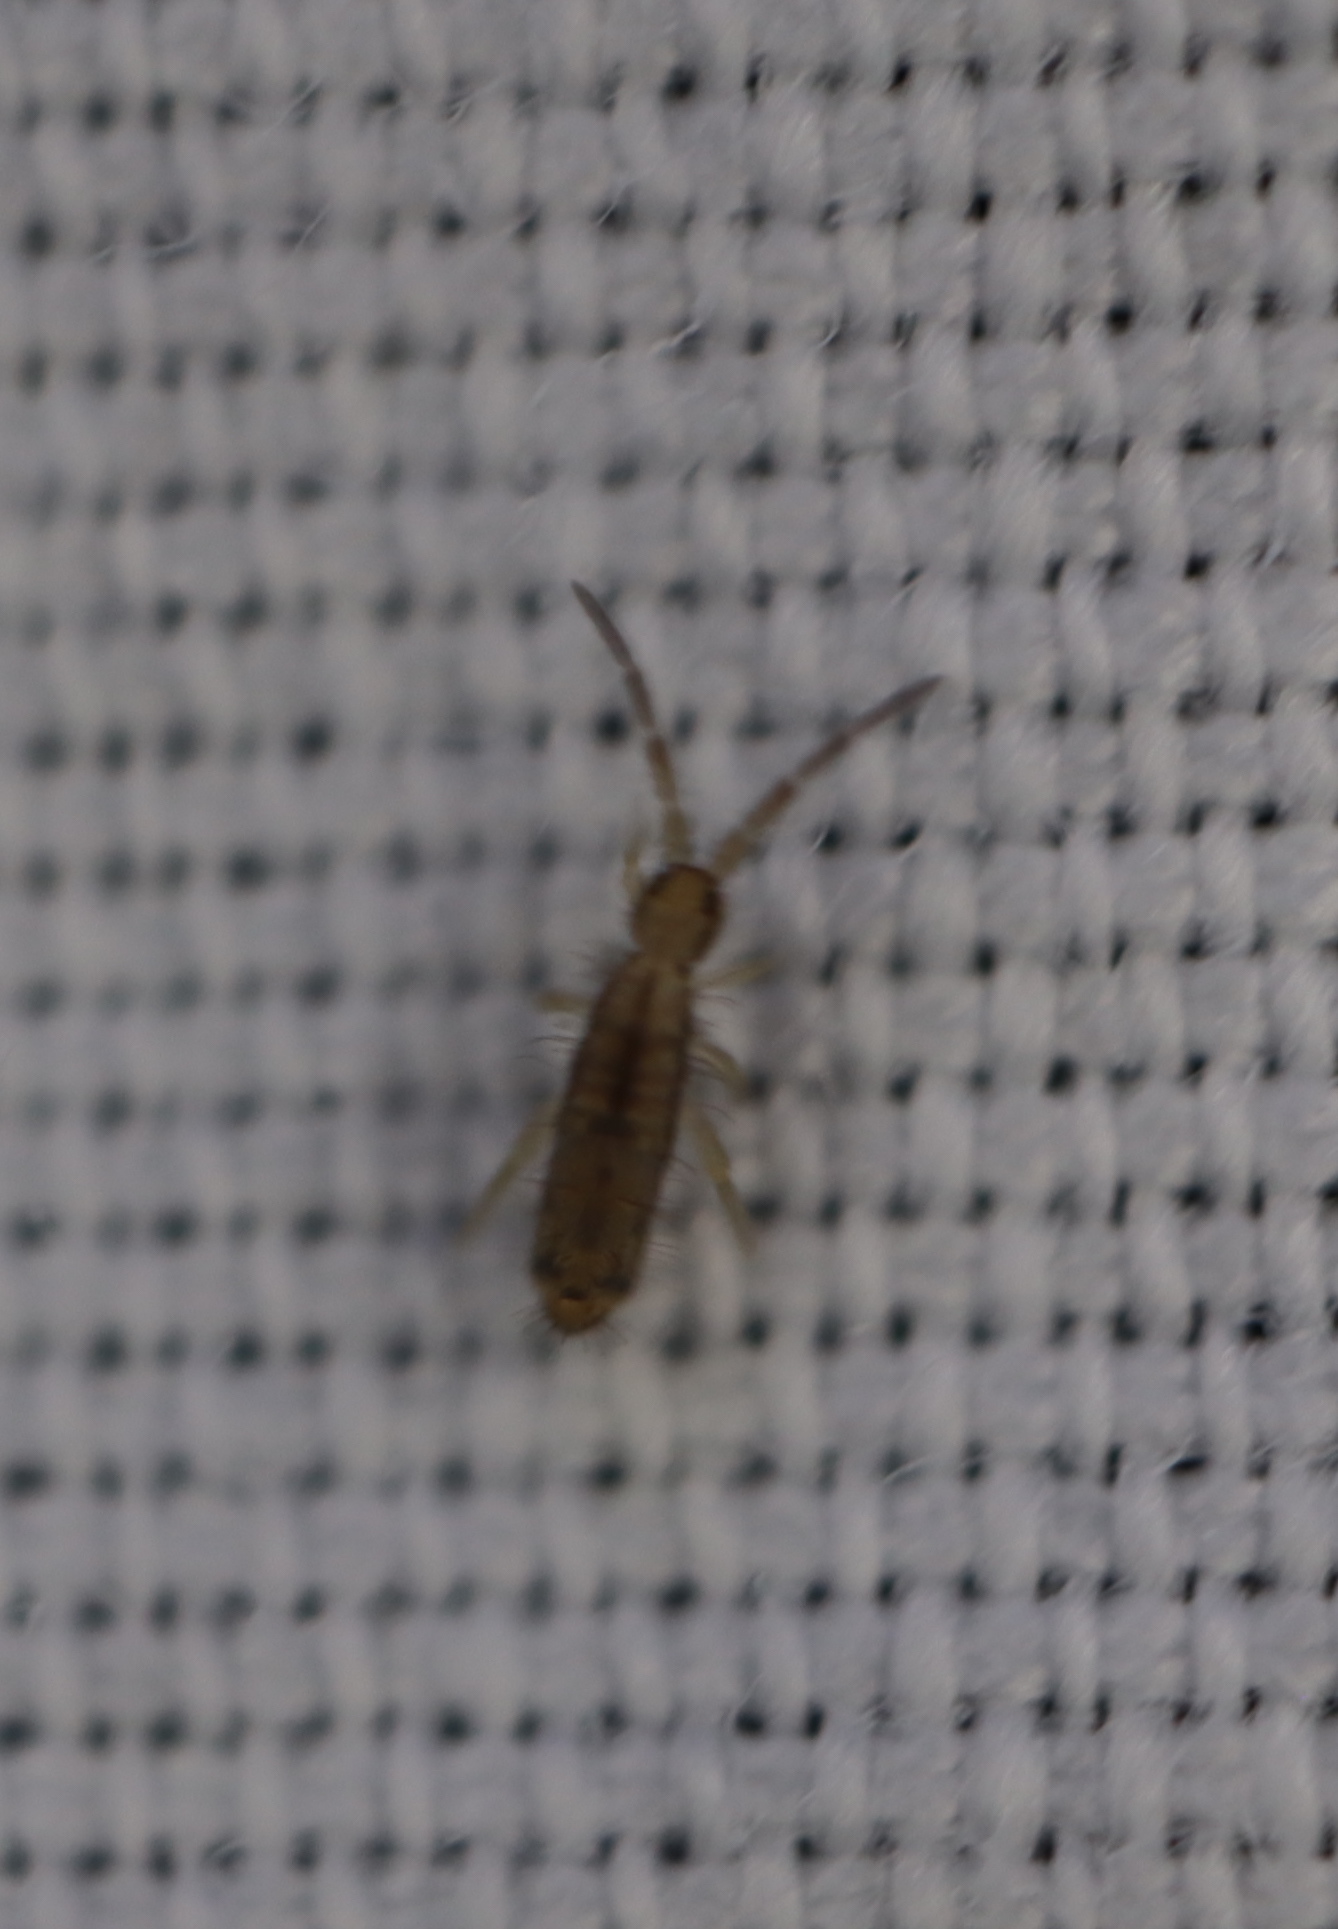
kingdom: Animalia
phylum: Arthropoda
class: Collembola
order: Entomobryomorpha
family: Entomobryidae
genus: Homidia
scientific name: Homidia socia
